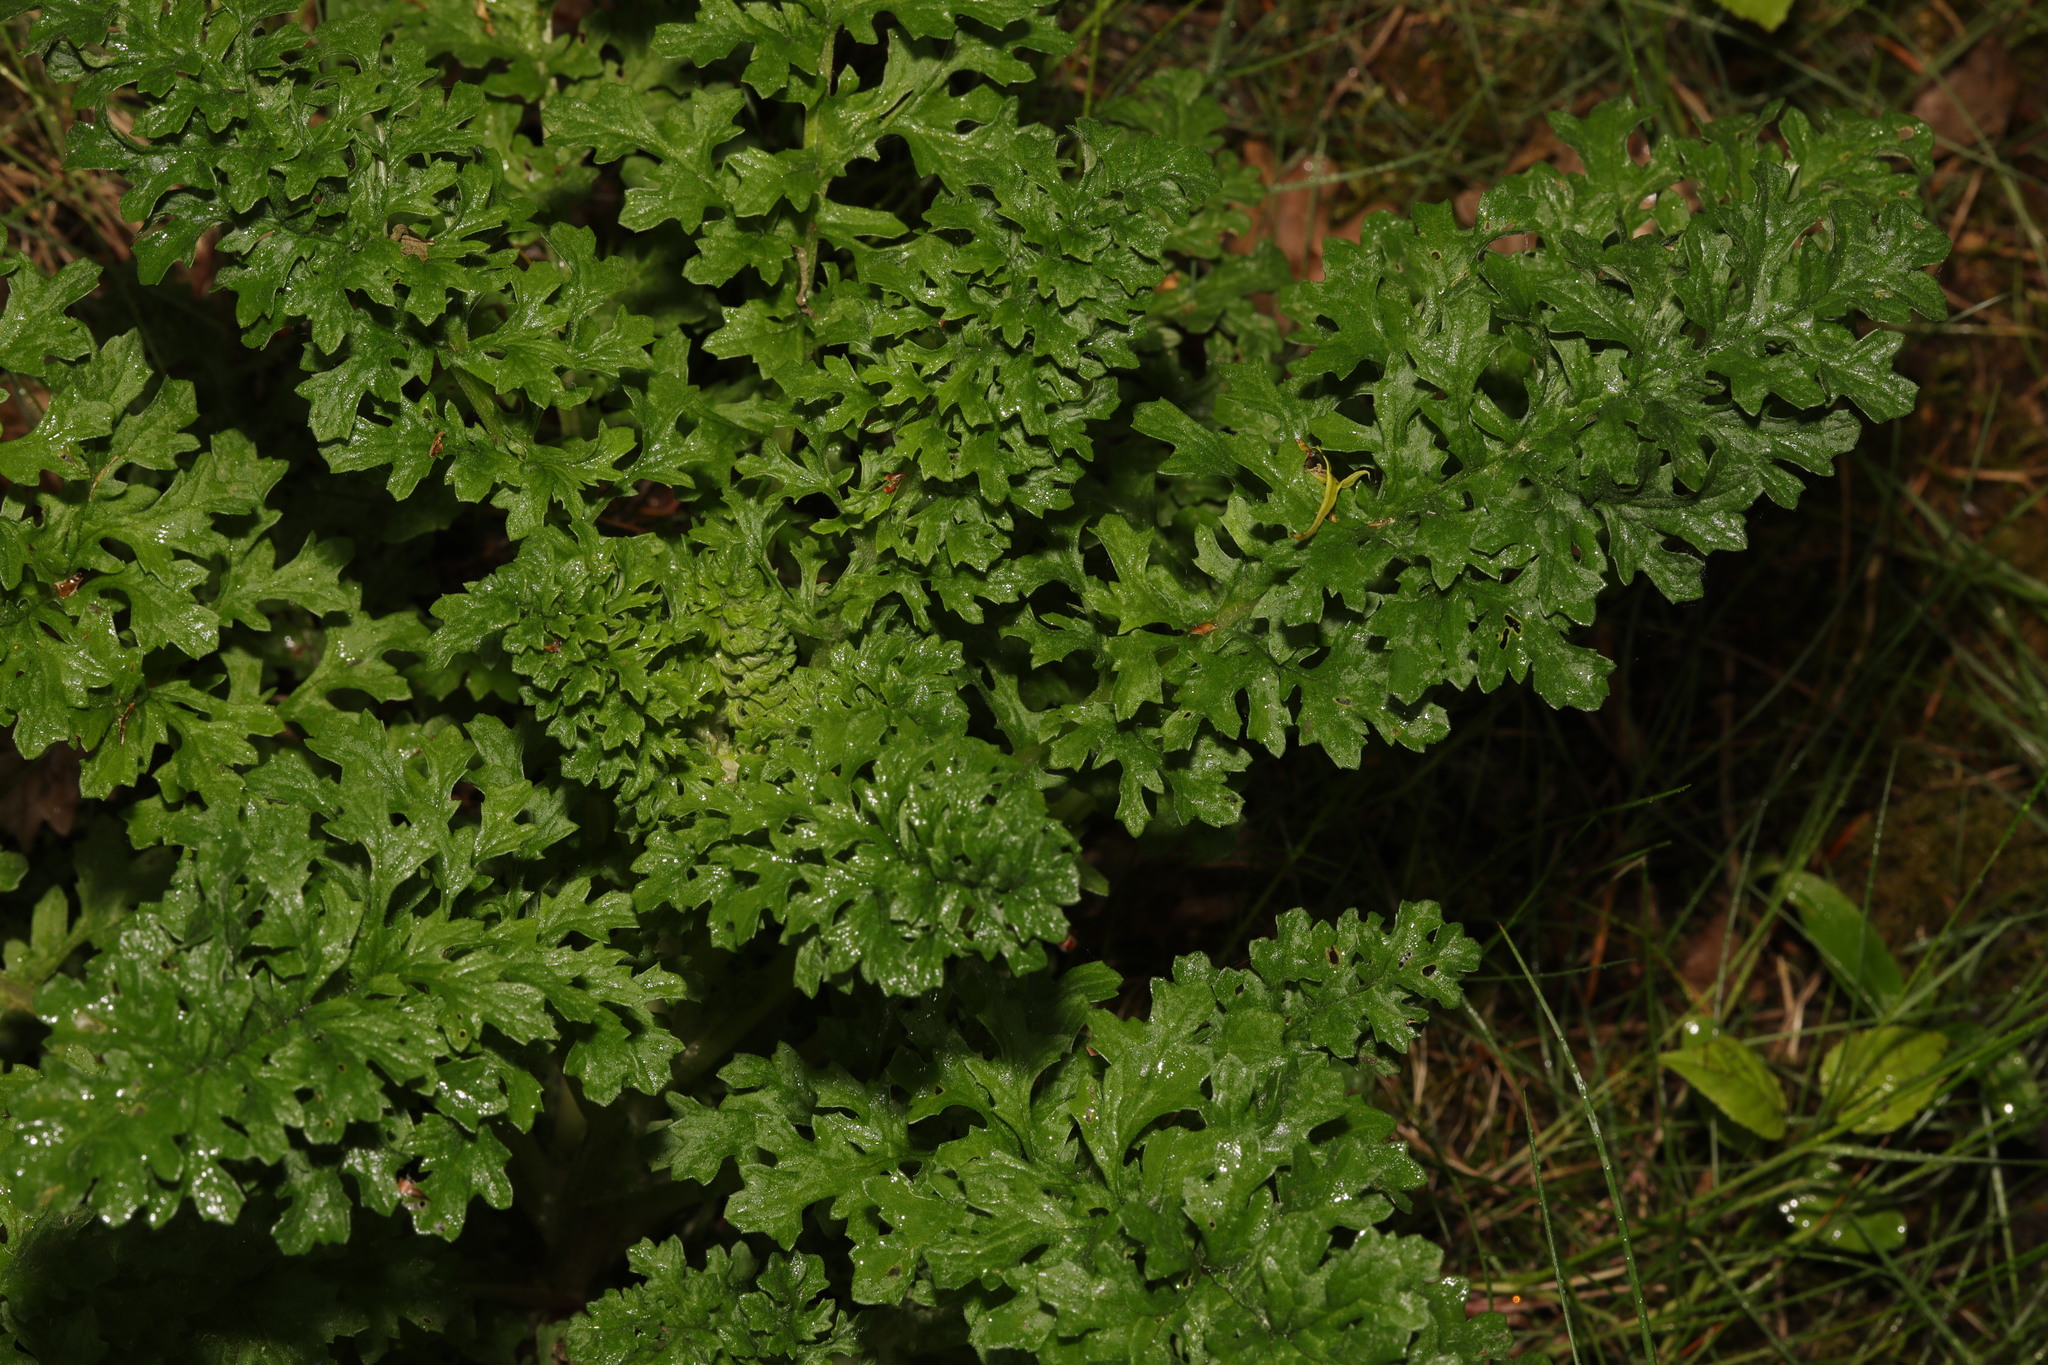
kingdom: Plantae
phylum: Tracheophyta
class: Magnoliopsida
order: Asterales
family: Asteraceae
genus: Jacobaea
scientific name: Jacobaea vulgaris
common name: Stinking willie
